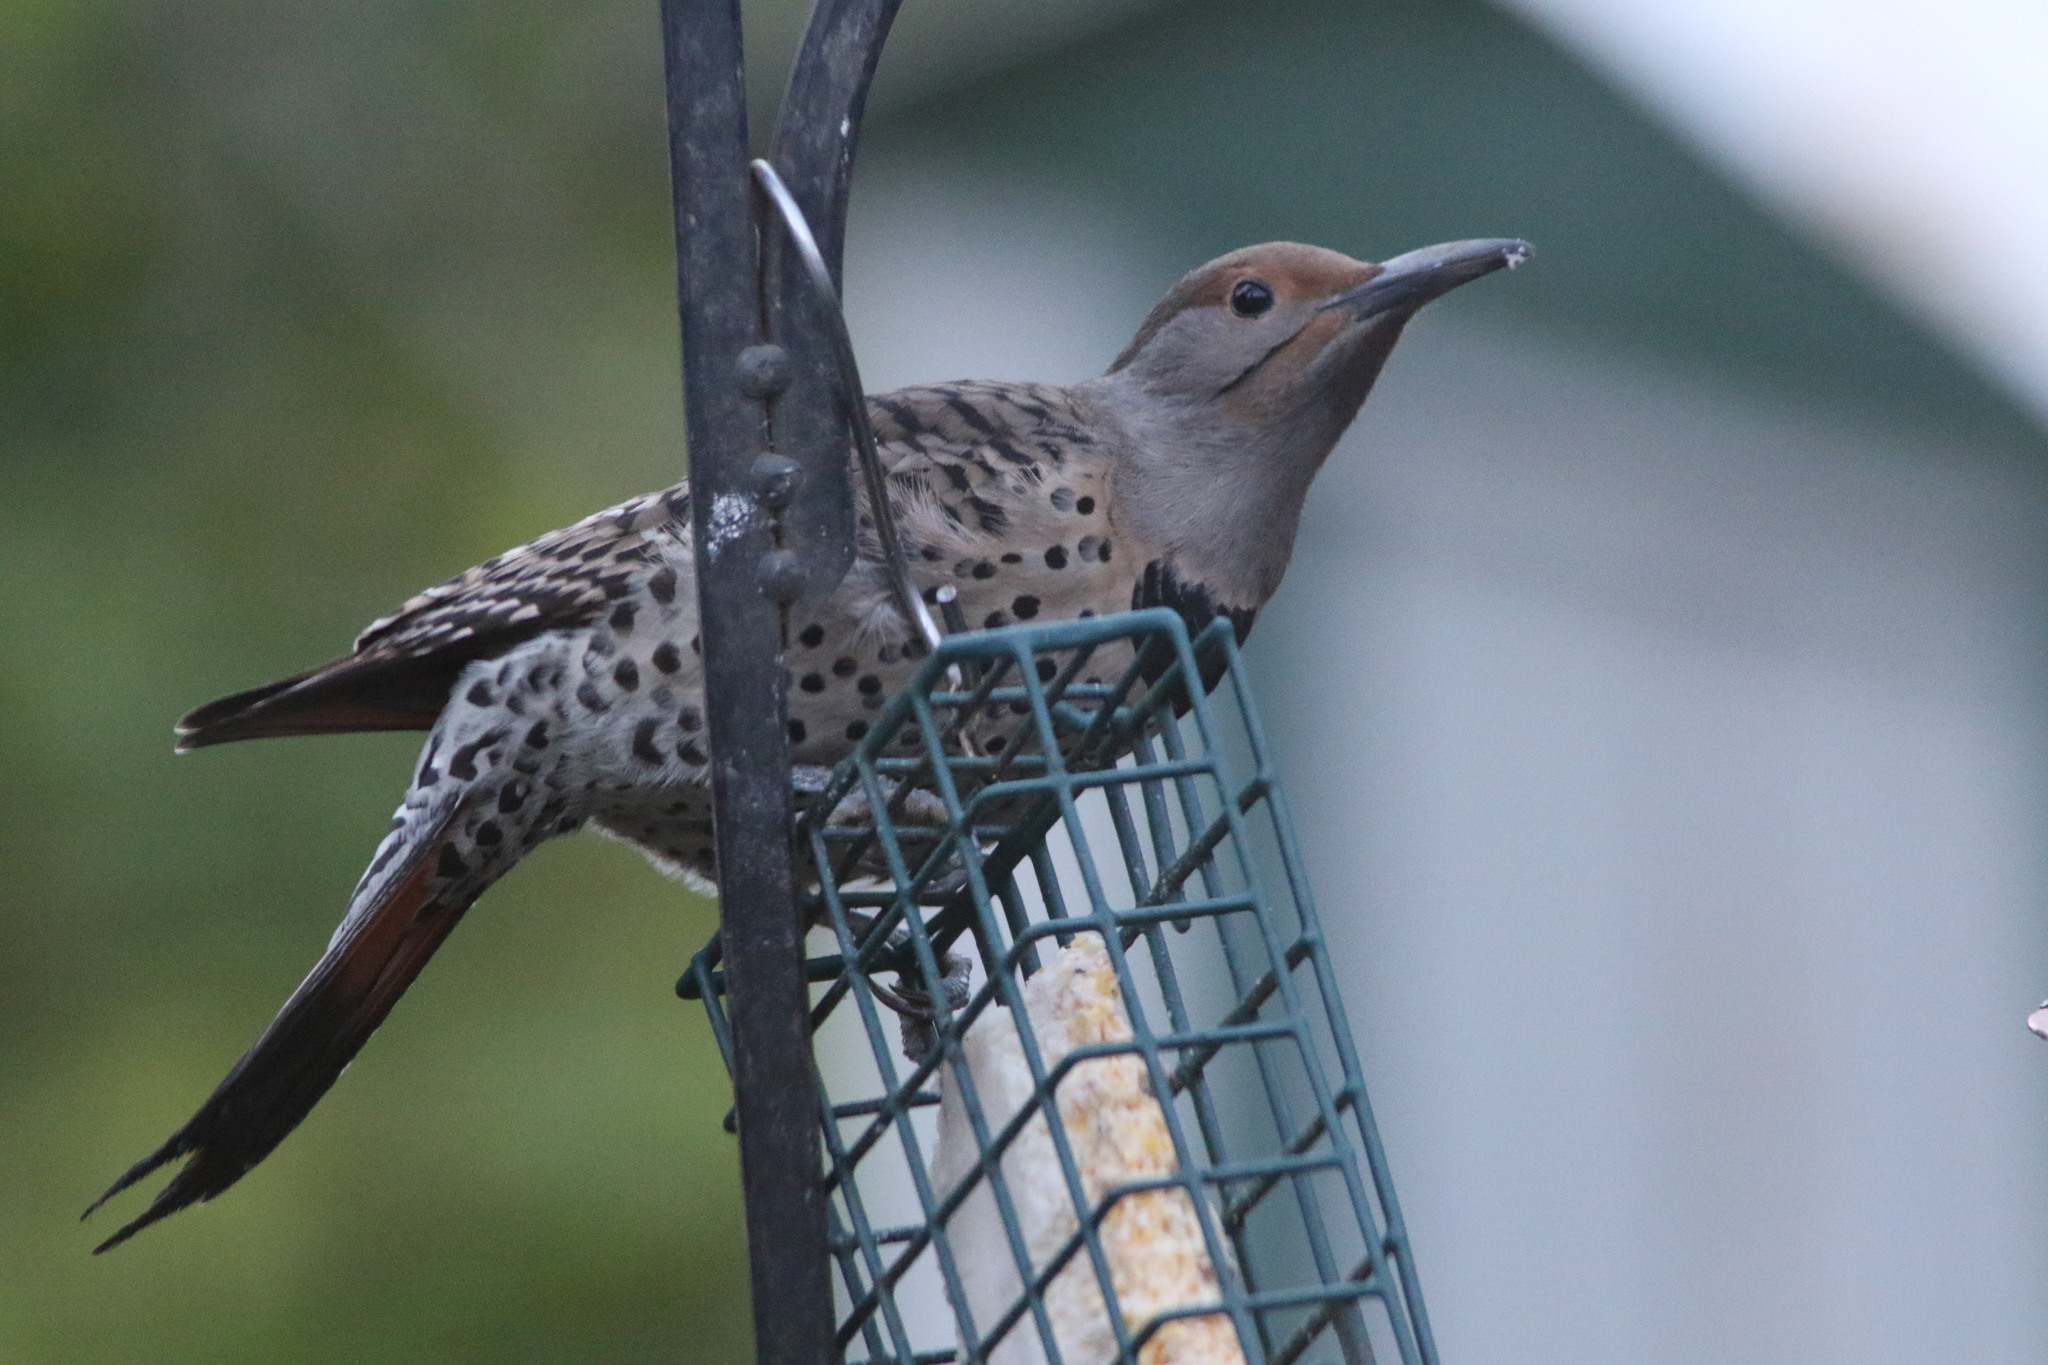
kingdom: Animalia
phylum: Chordata
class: Aves
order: Piciformes
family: Picidae
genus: Colaptes
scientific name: Colaptes auratus
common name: Northern flicker
